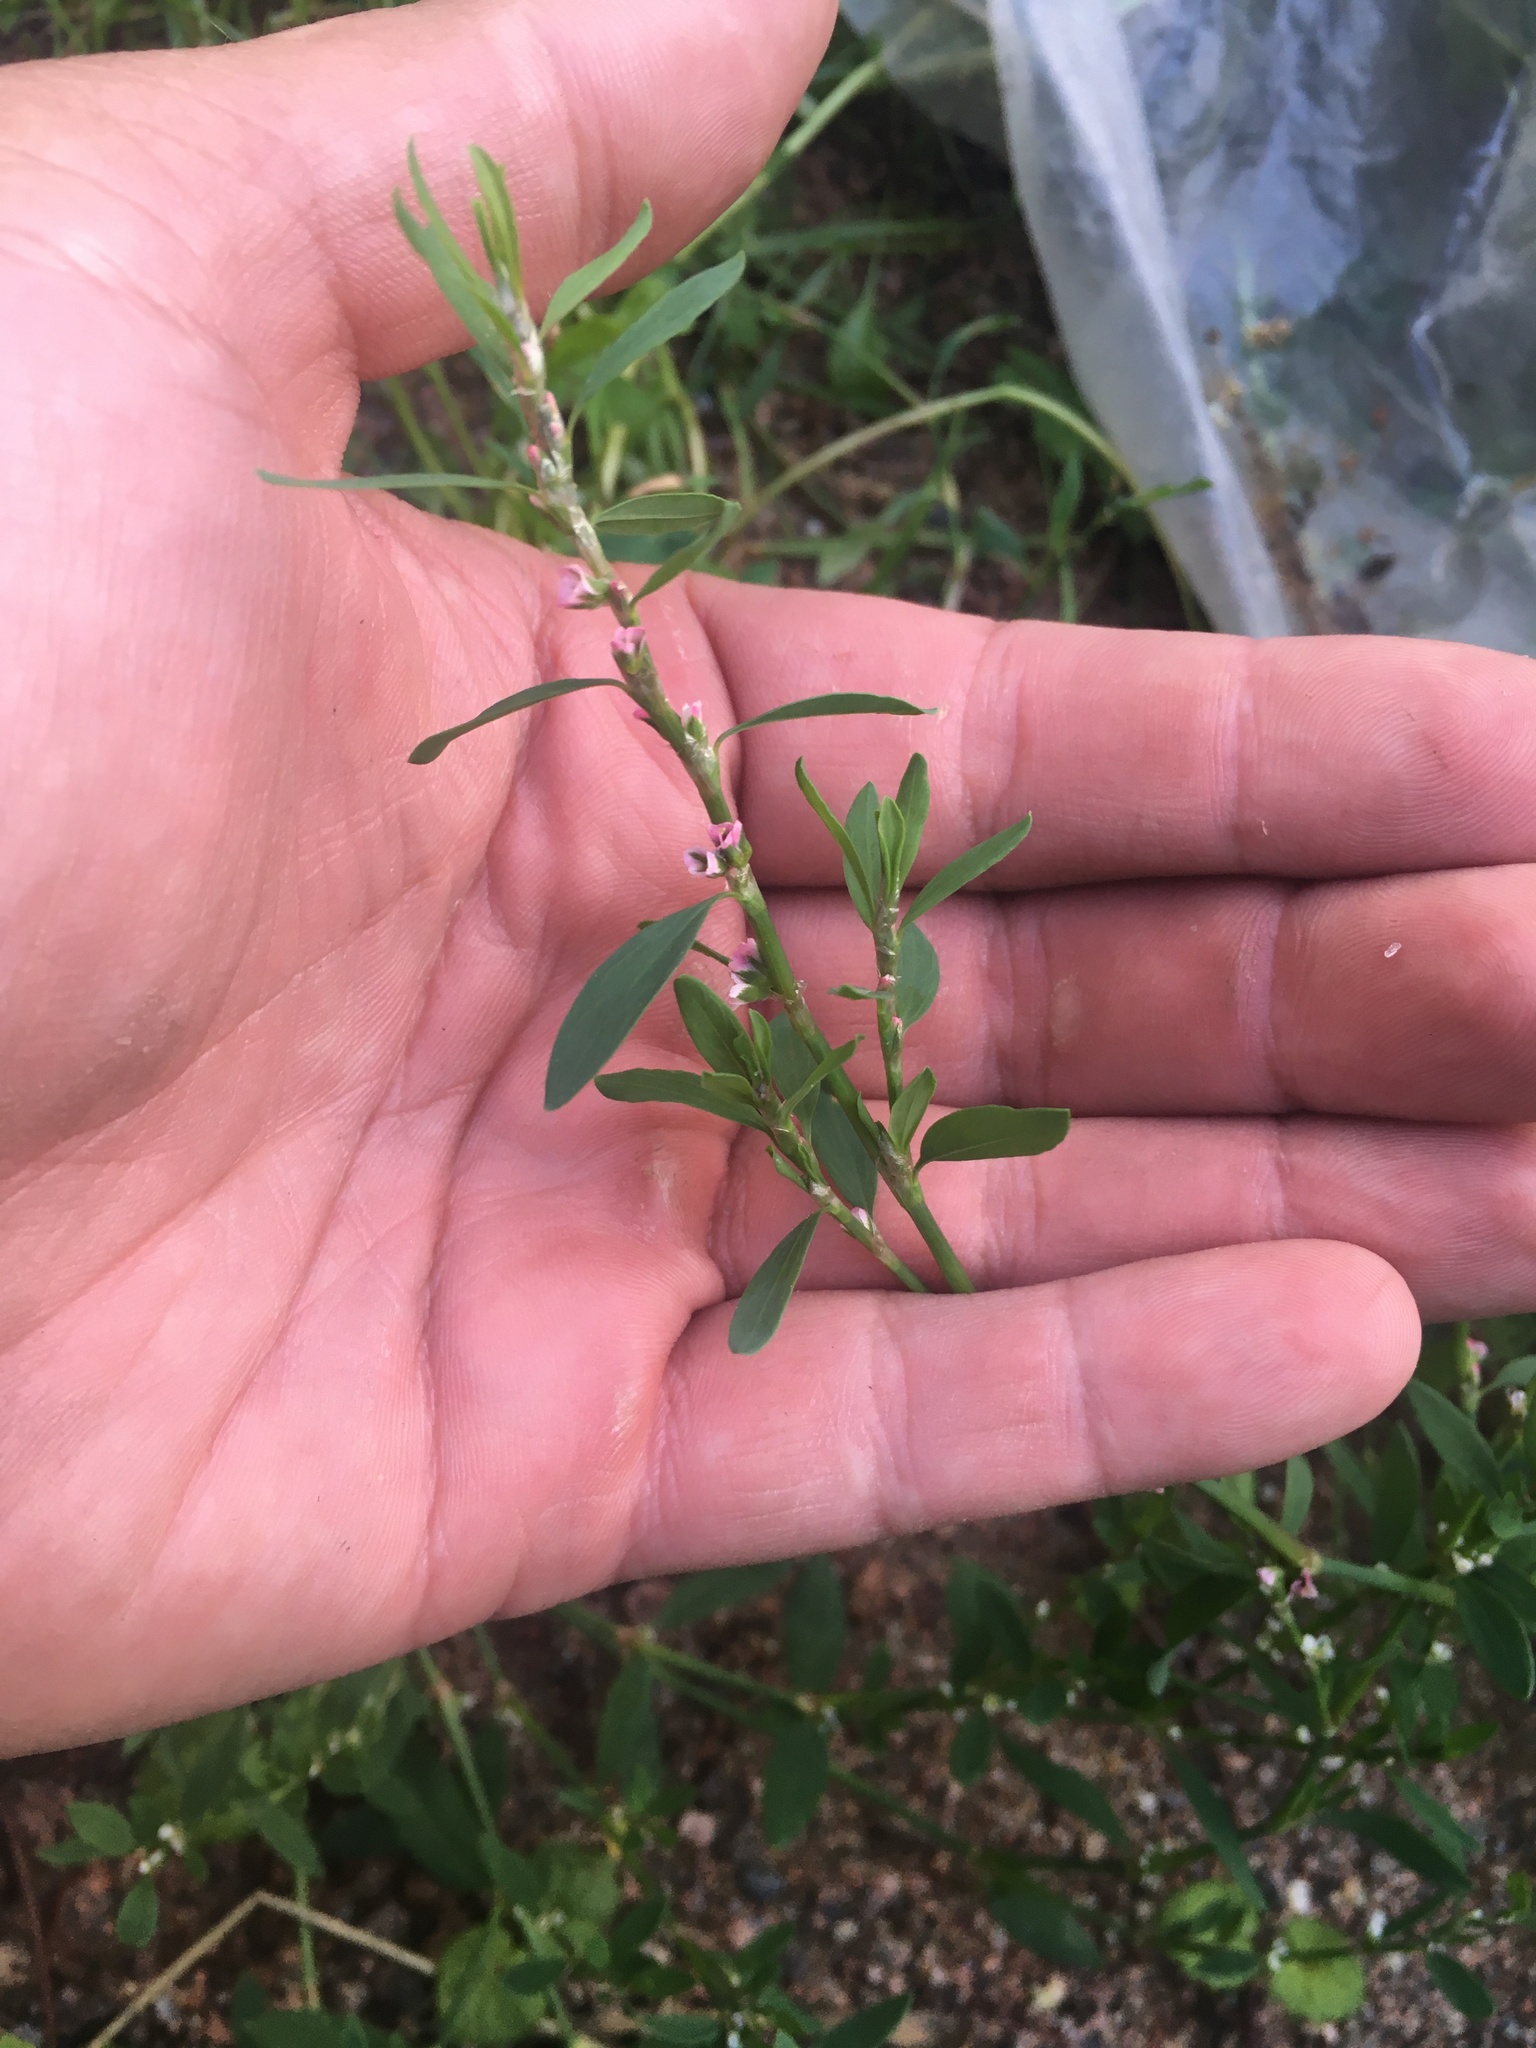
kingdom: Plantae
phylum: Tracheophyta
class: Magnoliopsida
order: Caryophyllales
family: Polygonaceae
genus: Polygonum
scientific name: Polygonum
